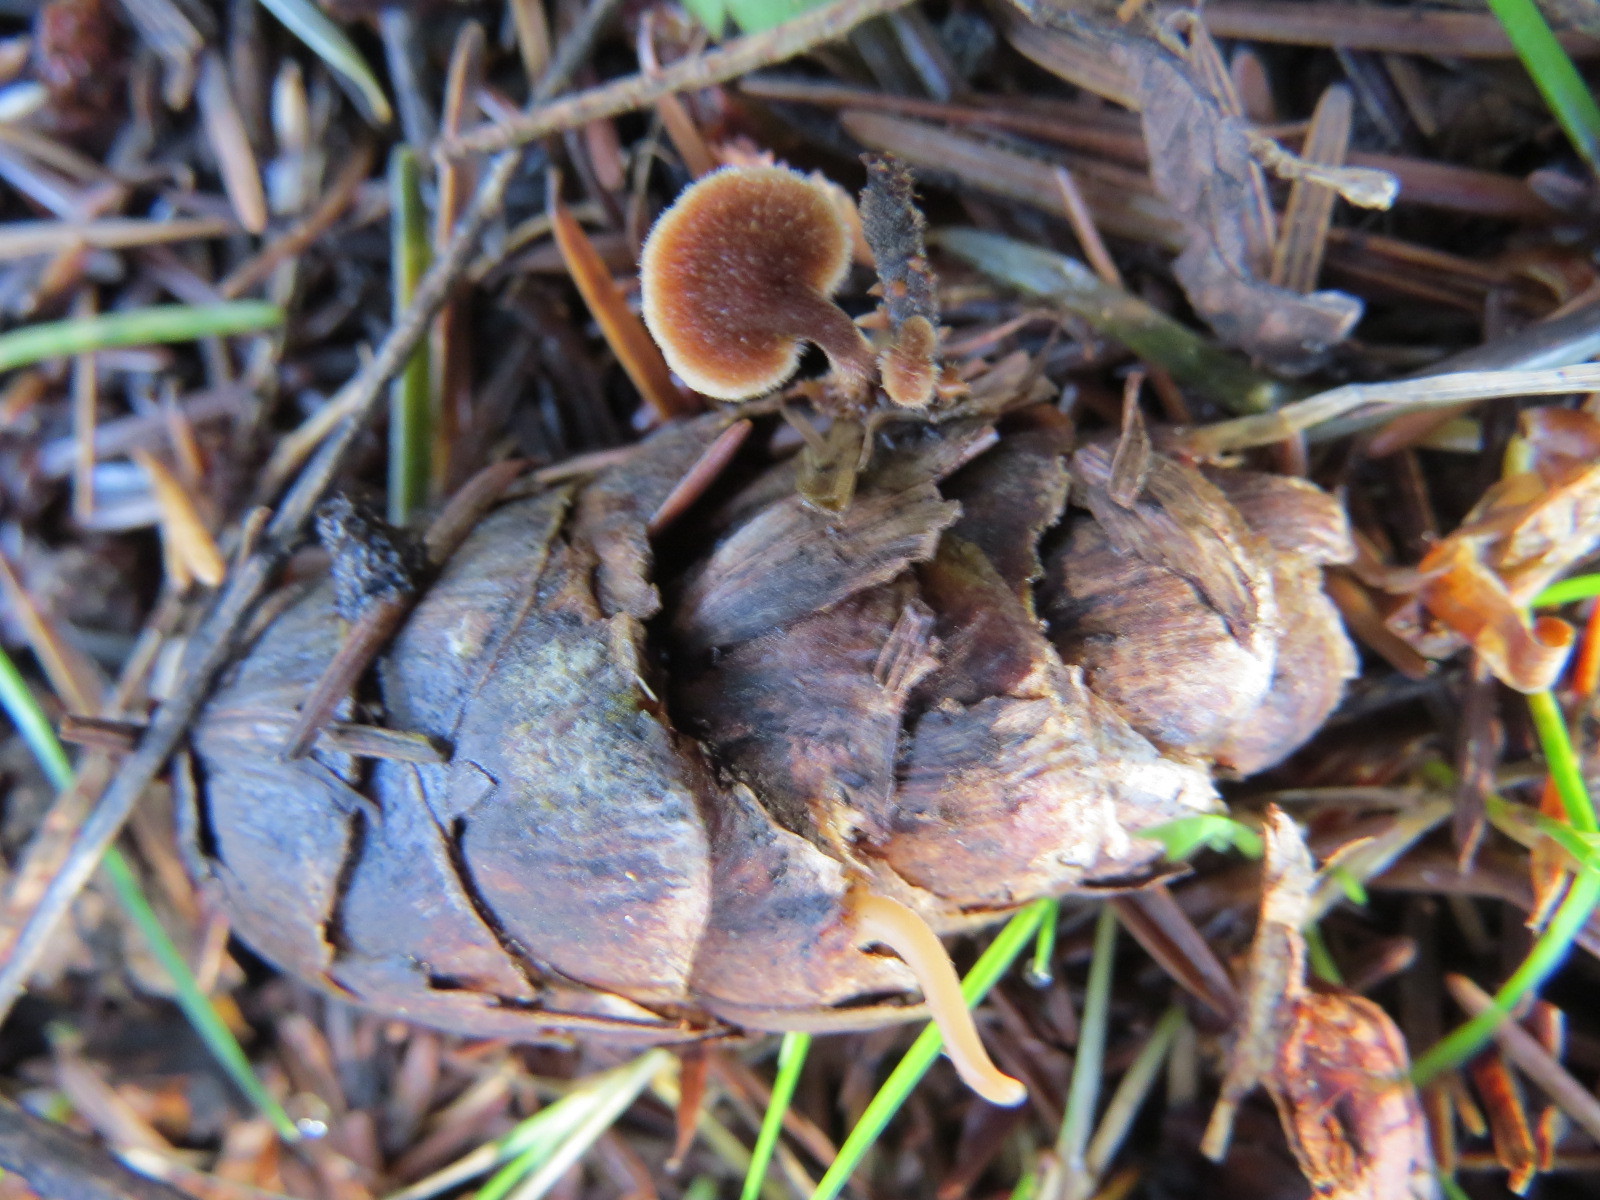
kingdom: Fungi
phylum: Basidiomycota
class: Agaricomycetes
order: Russulales
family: Auriscalpiaceae
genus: Auriscalpium
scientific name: Auriscalpium vulgare
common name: Earpick fungus
